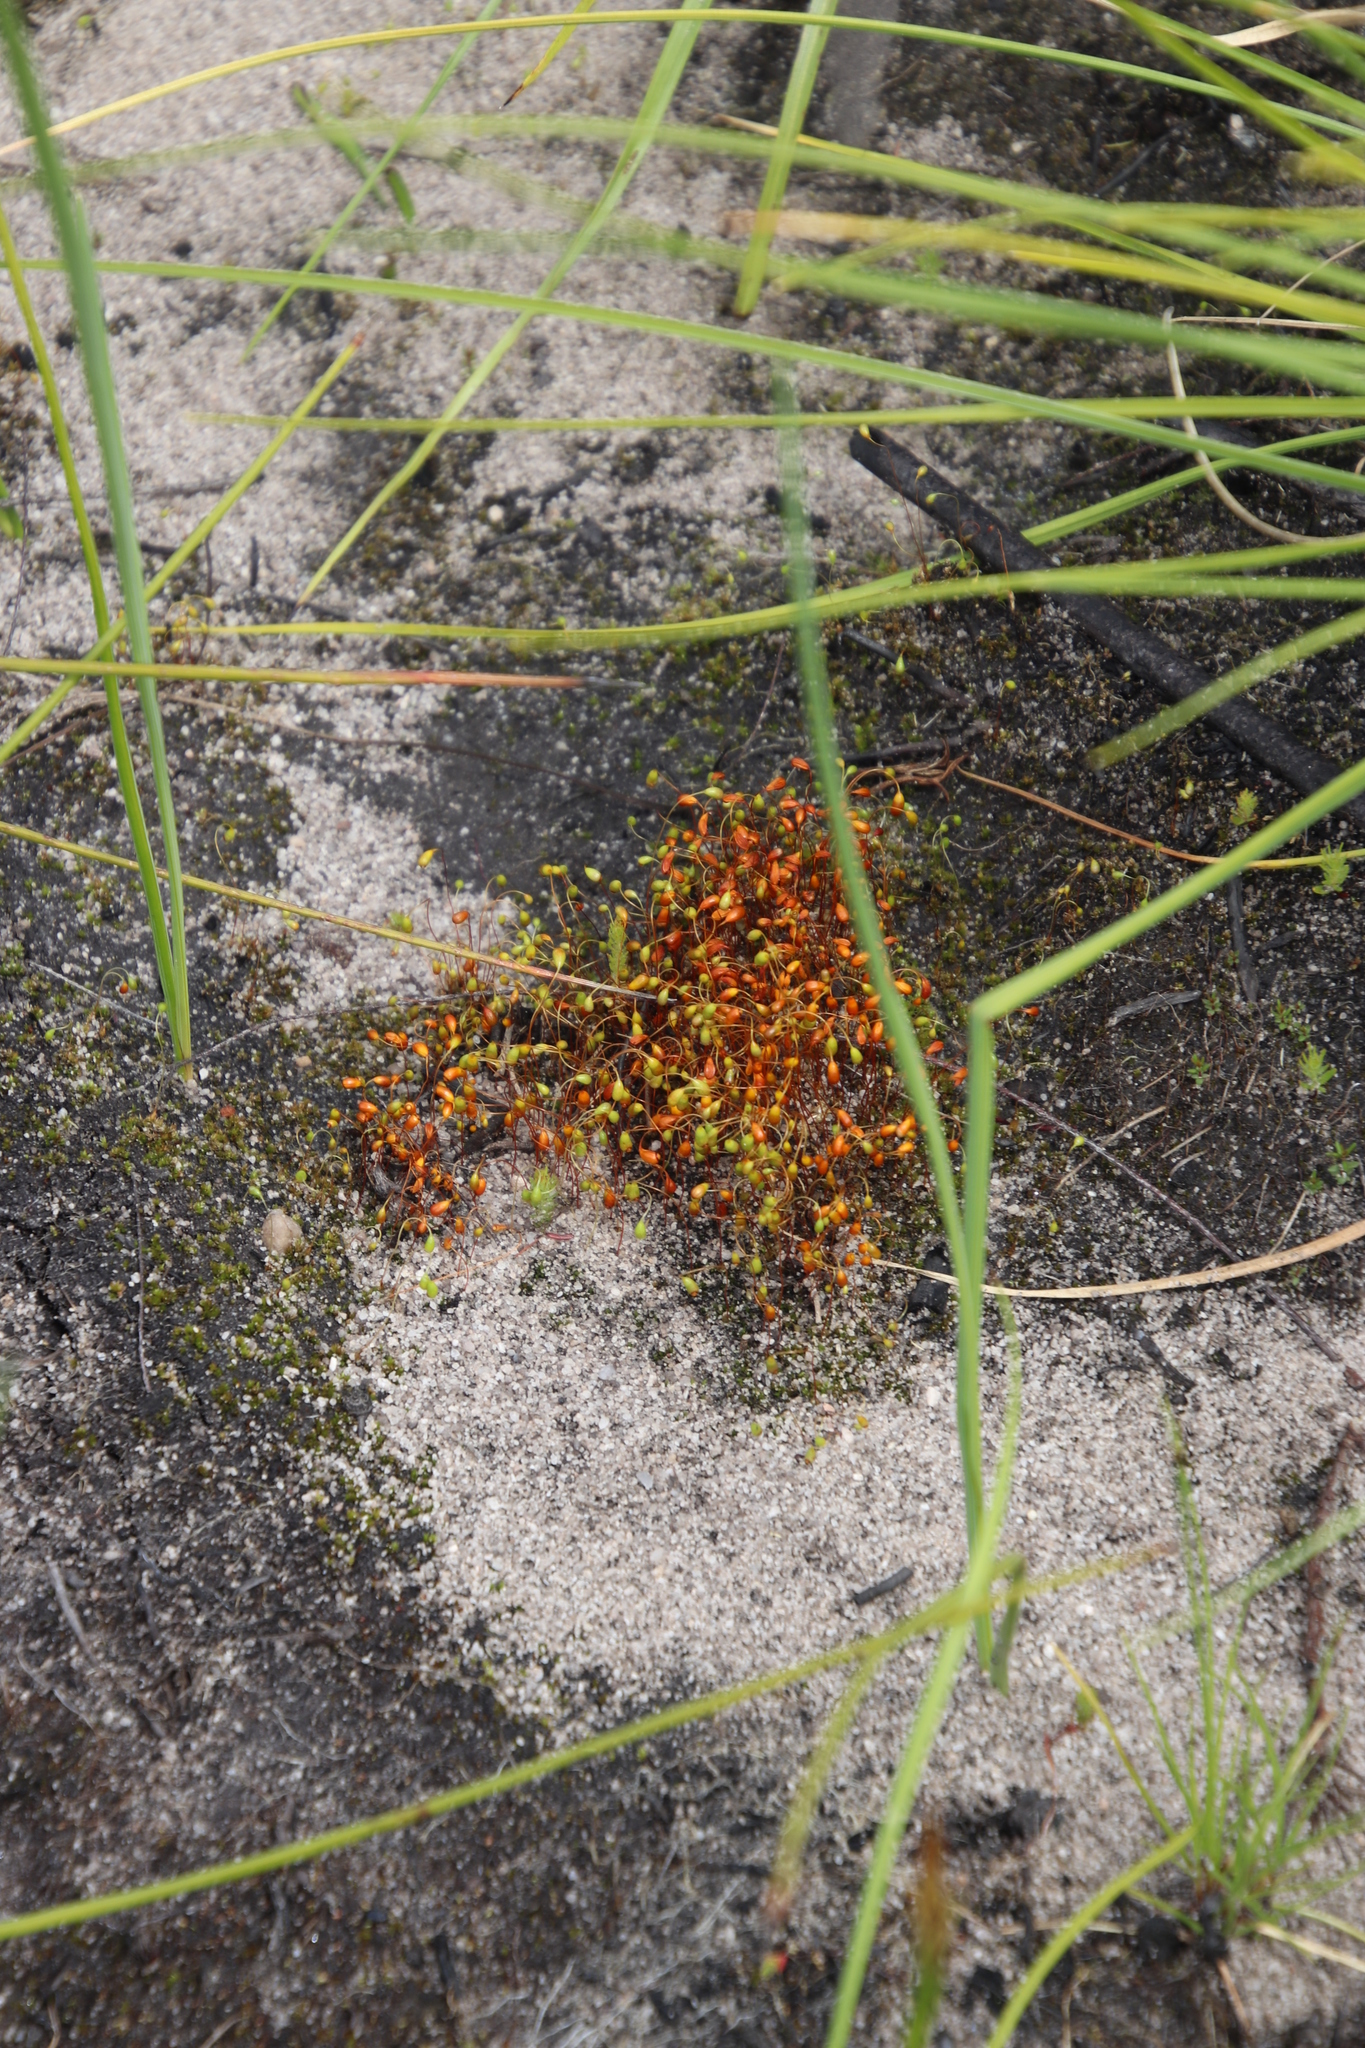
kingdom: Plantae
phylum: Bryophyta
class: Bryopsida
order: Funariales
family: Funariaceae
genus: Funaria
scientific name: Funaria hygrometrica
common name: Common cord moss
